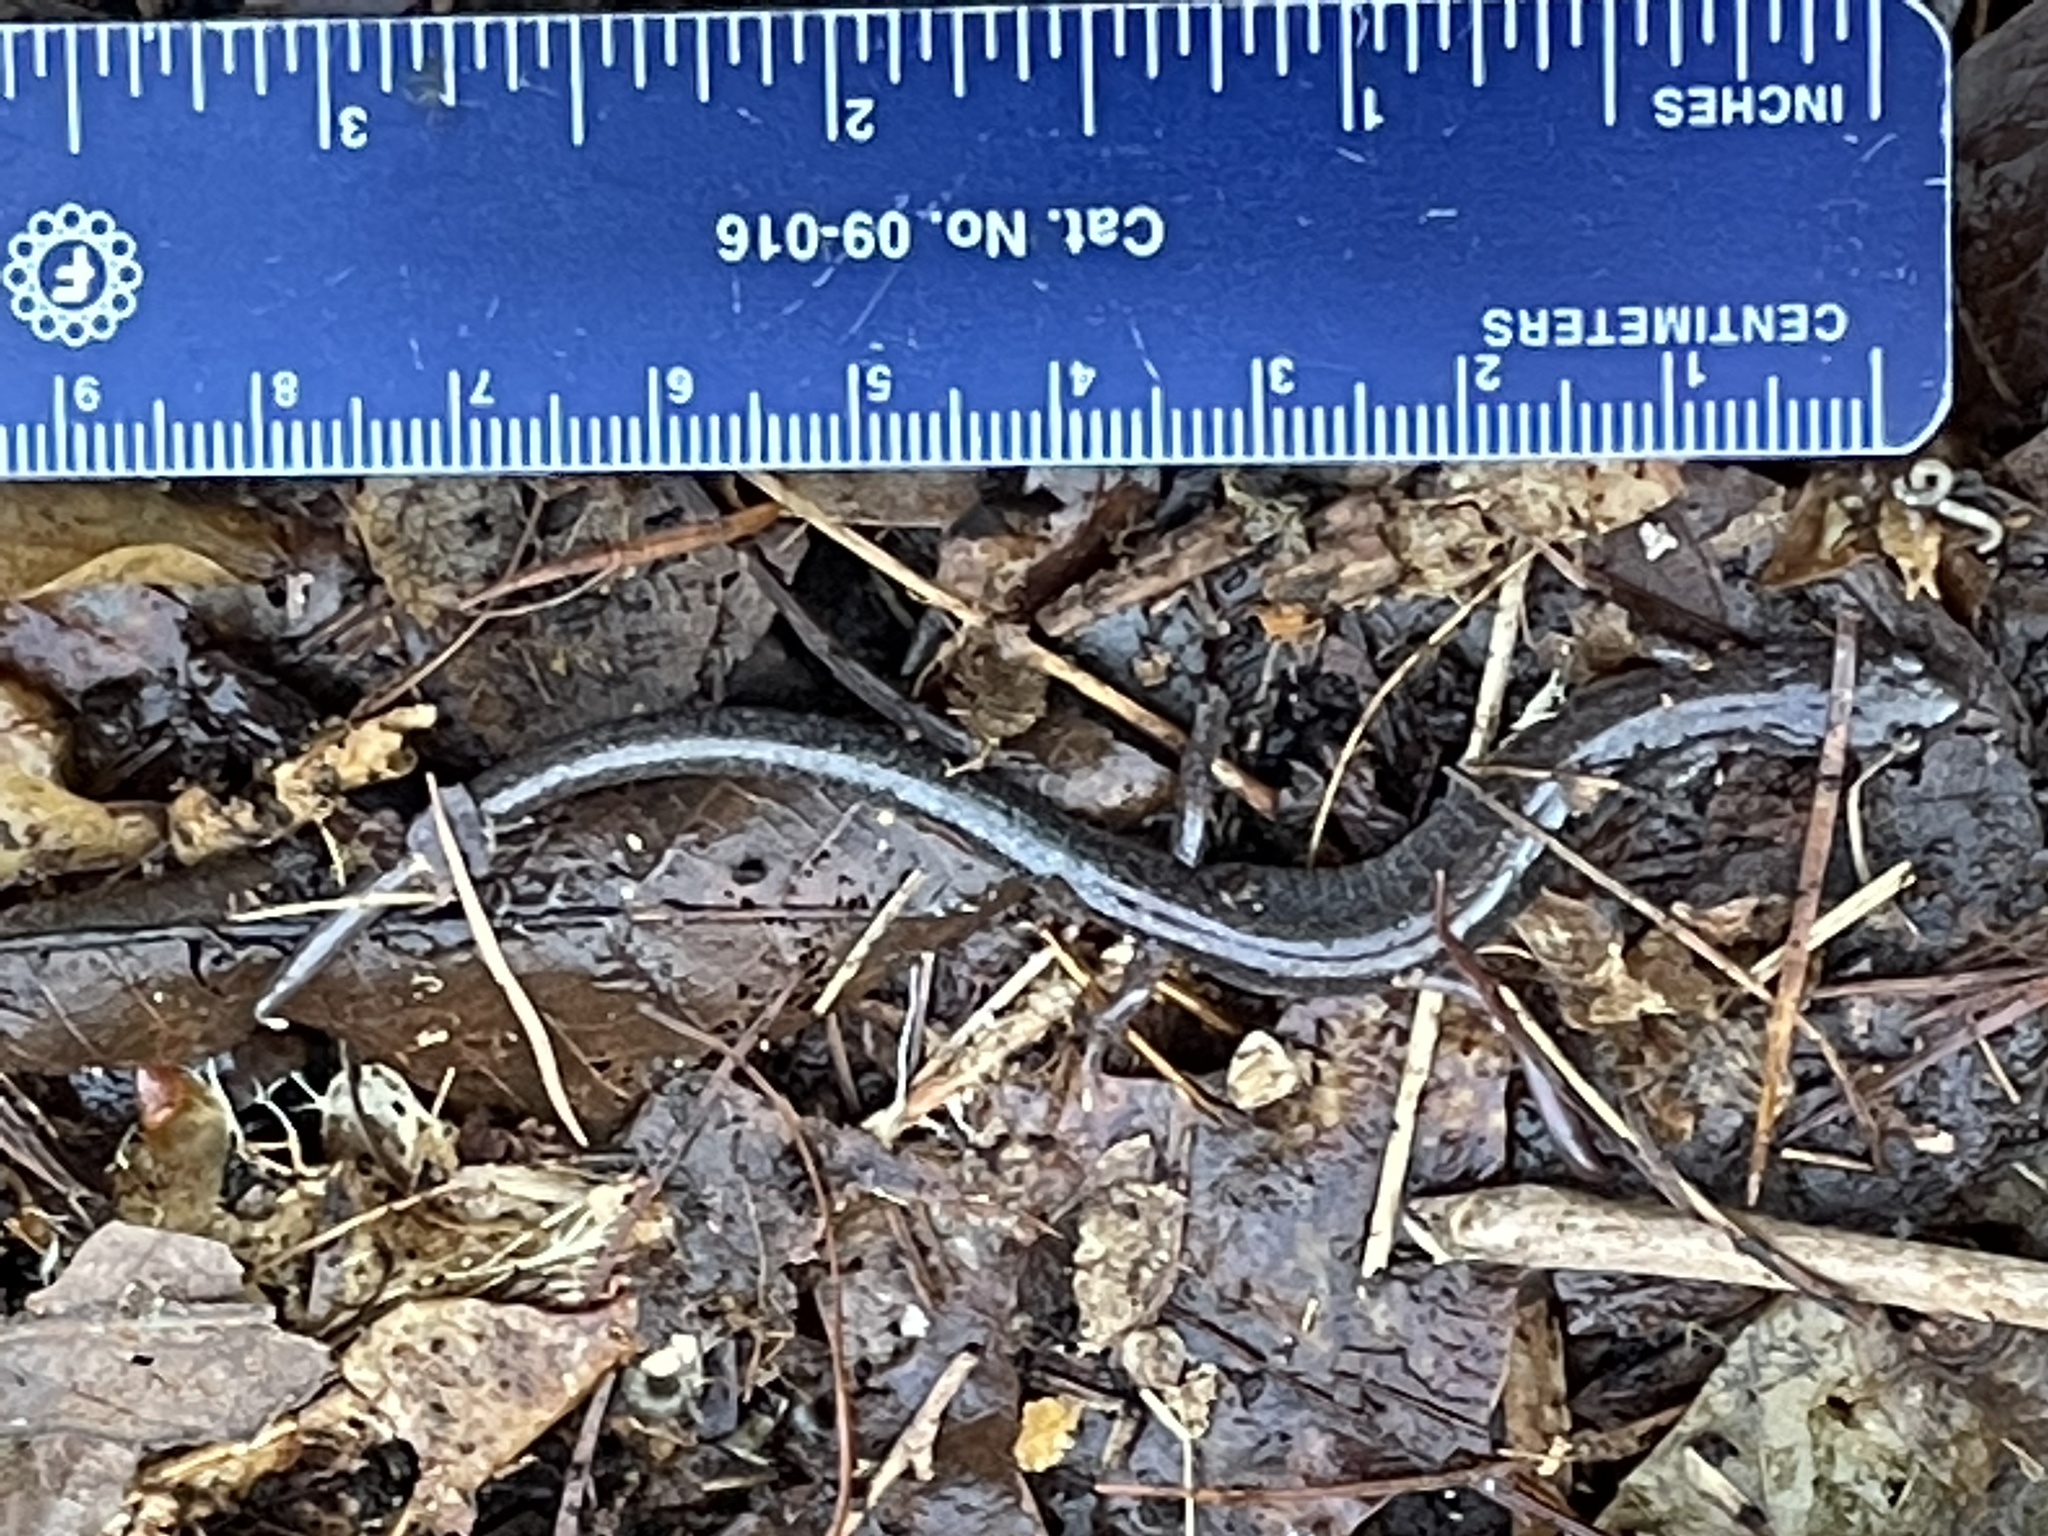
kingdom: Animalia
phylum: Chordata
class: Amphibia
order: Caudata
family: Plethodontidae
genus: Plethodon
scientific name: Plethodon cinereus
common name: Redback salamander
